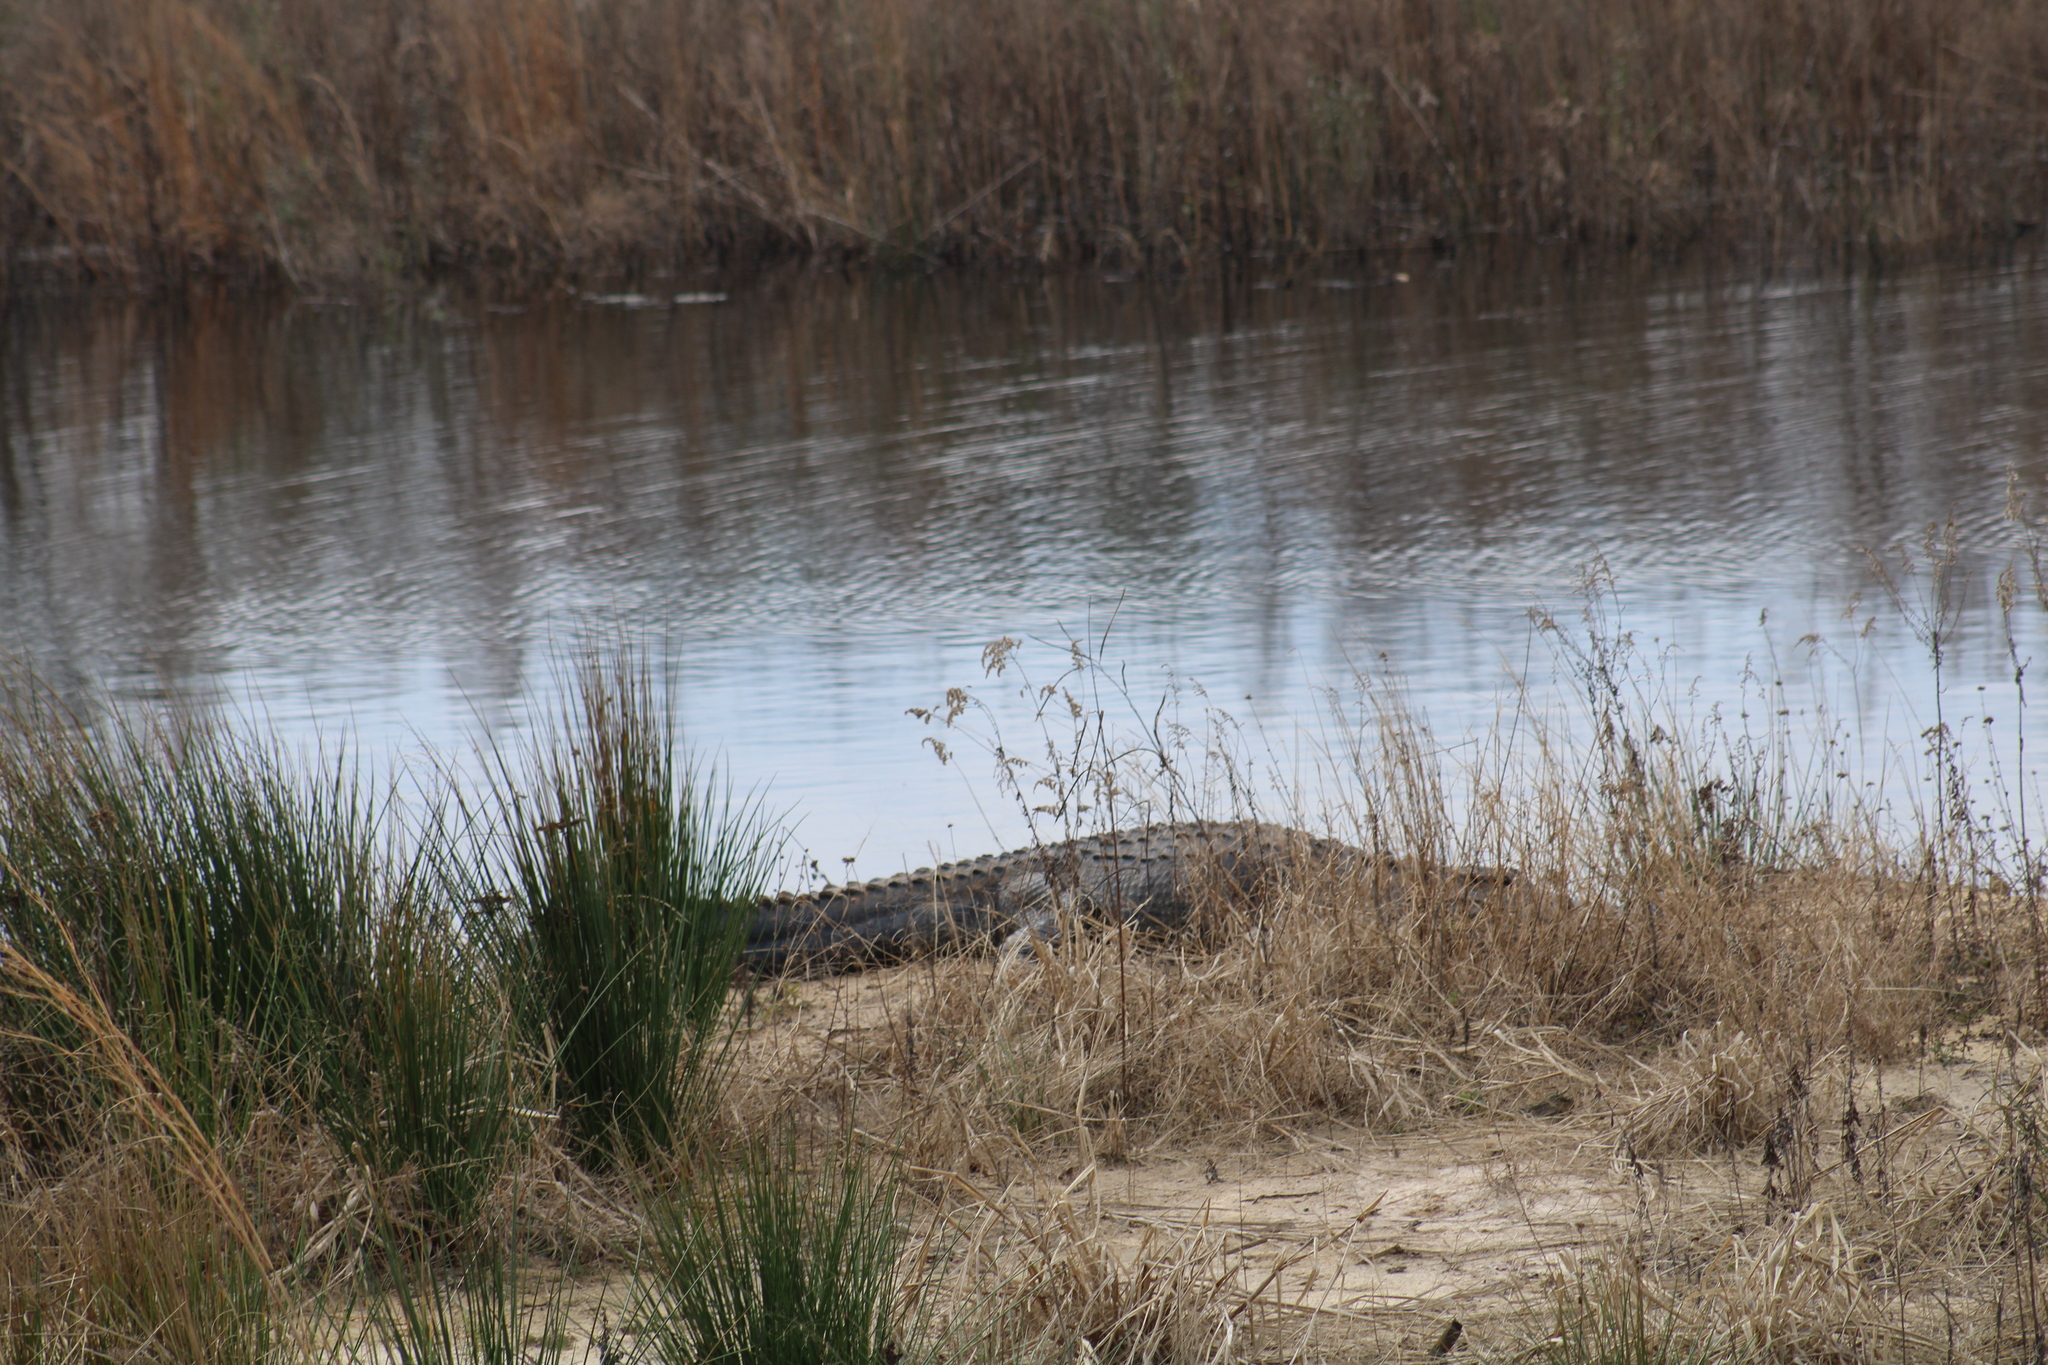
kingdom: Animalia
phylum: Chordata
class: Crocodylia
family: Alligatoridae
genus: Alligator
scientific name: Alligator mississippiensis
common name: American alligator
